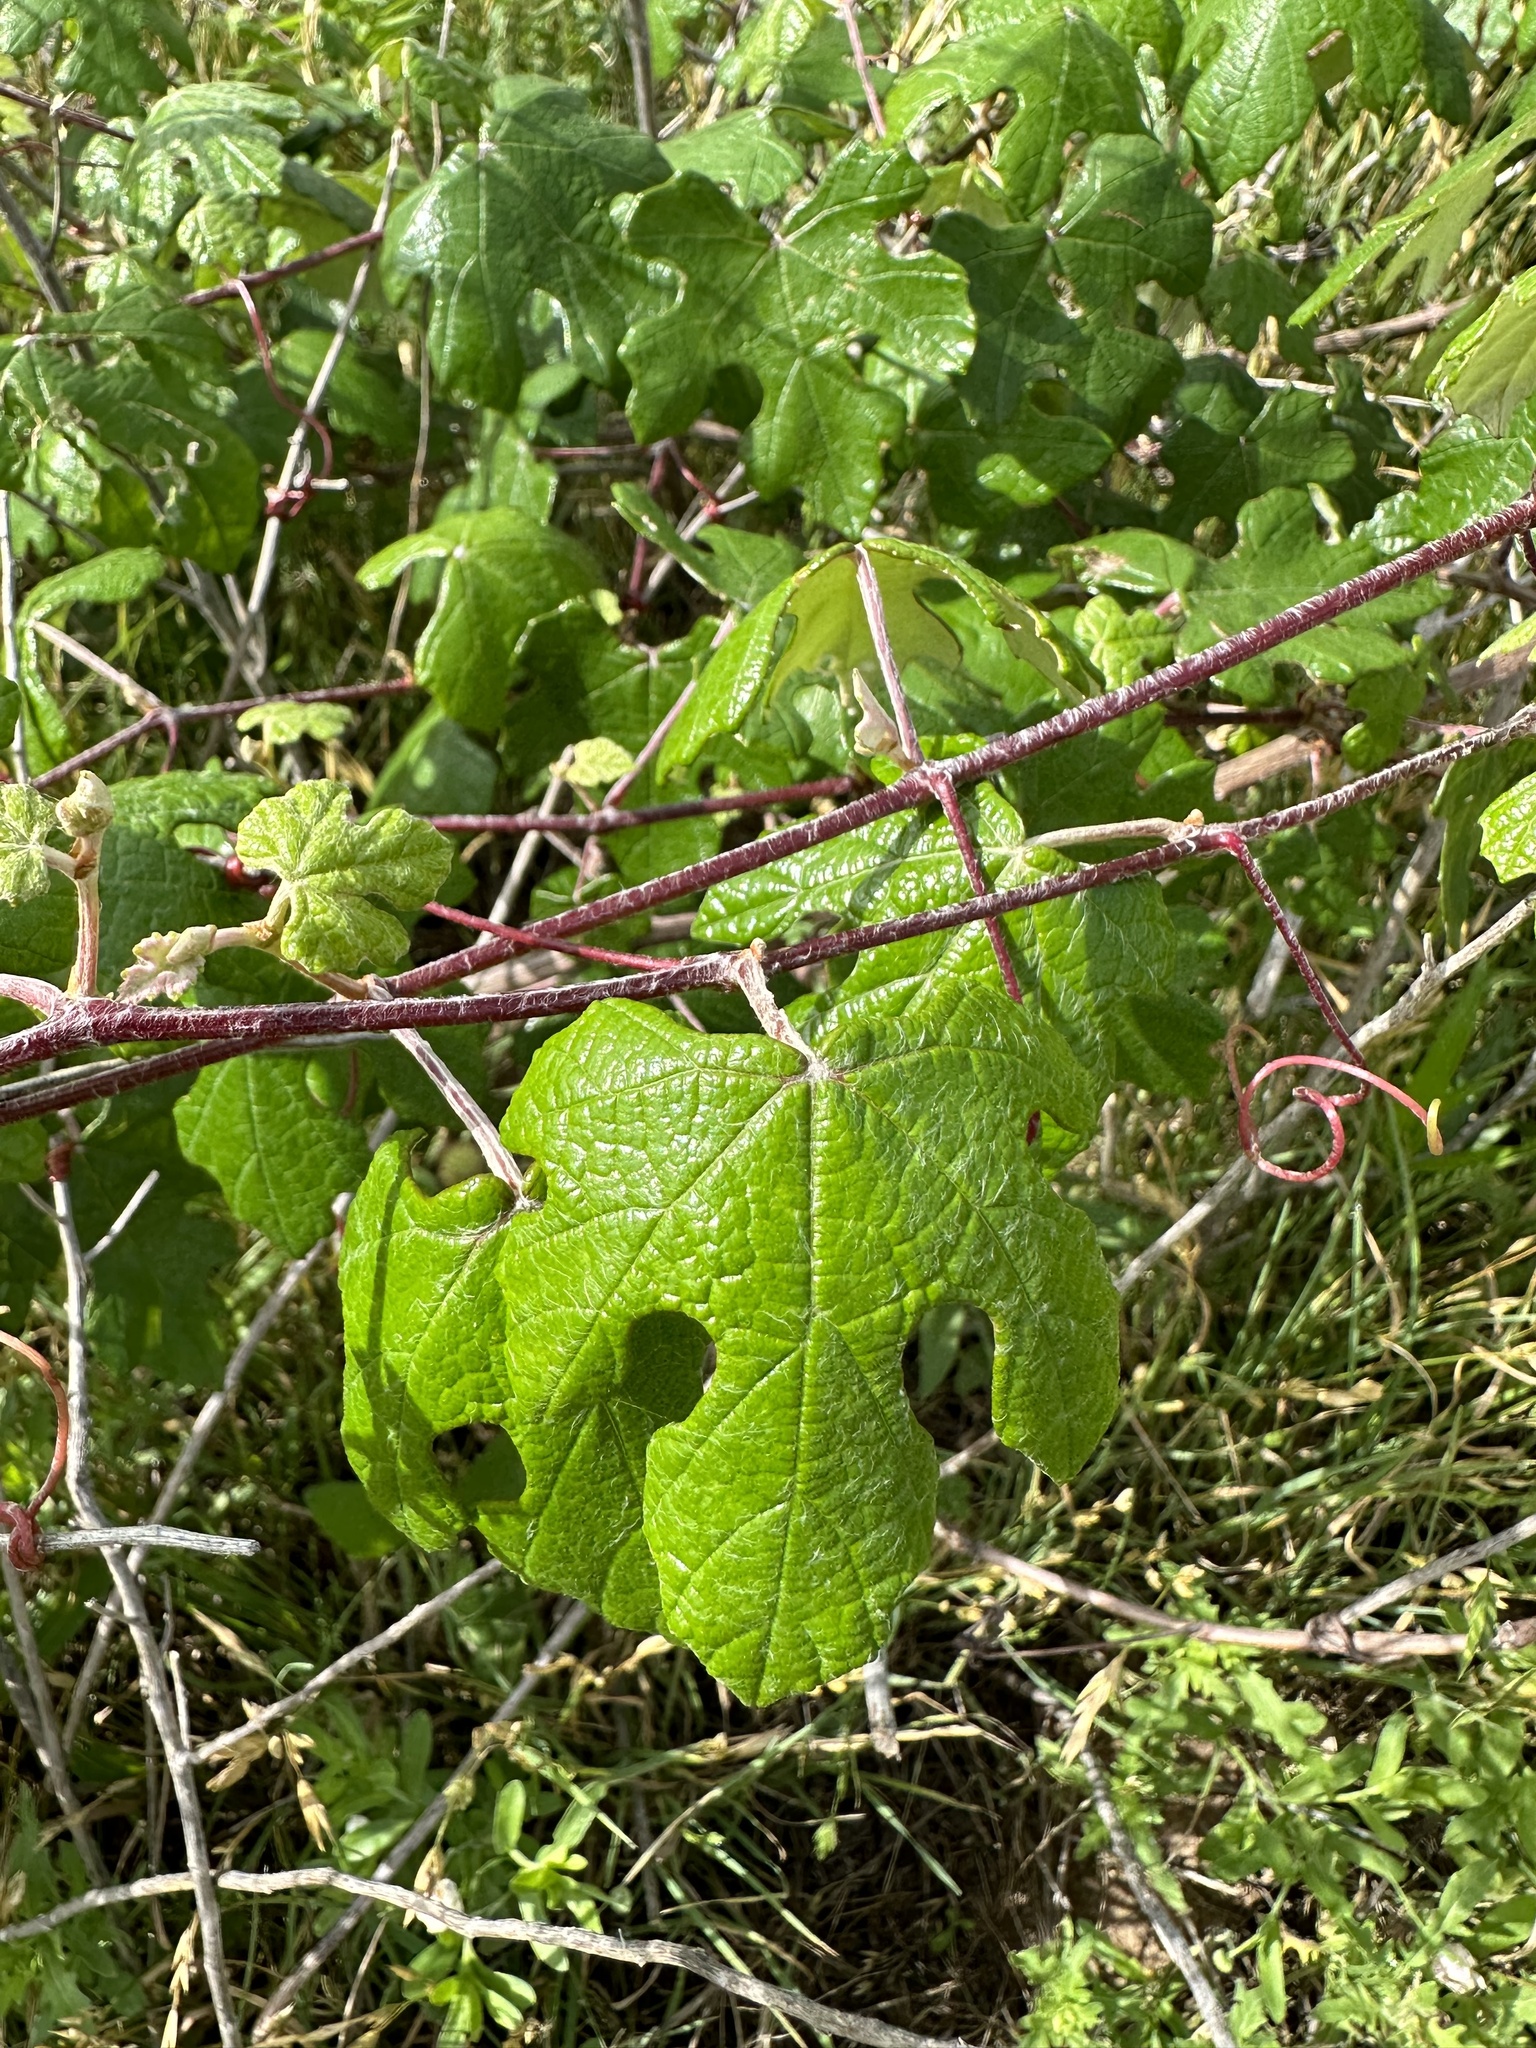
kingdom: Plantae
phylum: Tracheophyta
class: Magnoliopsida
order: Vitales
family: Vitaceae
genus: Vitis
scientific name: Vitis mustangensis
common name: Mustang grape
